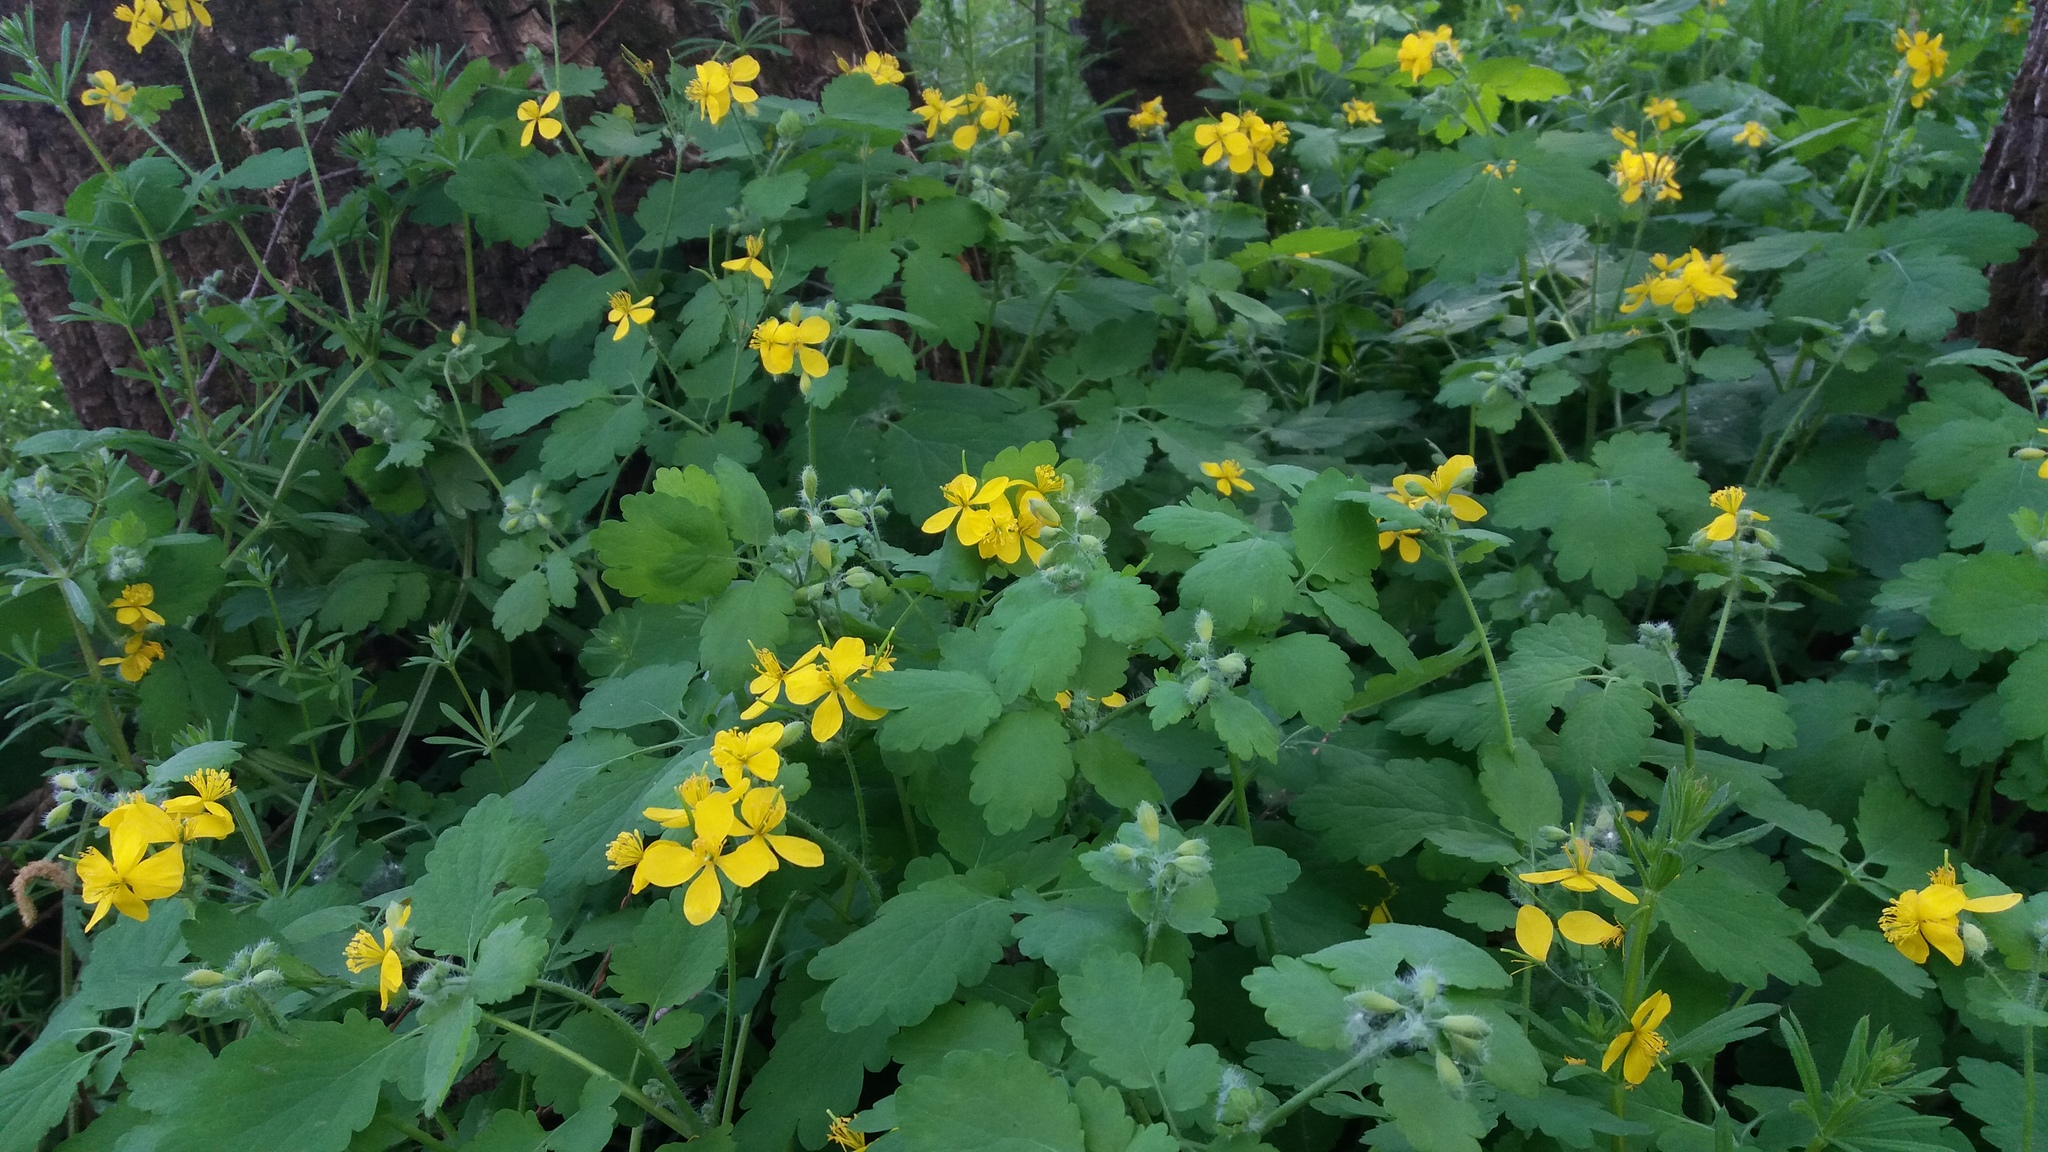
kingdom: Plantae
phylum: Tracheophyta
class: Magnoliopsida
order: Ranunculales
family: Papaveraceae
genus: Chelidonium
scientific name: Chelidonium majus
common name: Greater celandine
